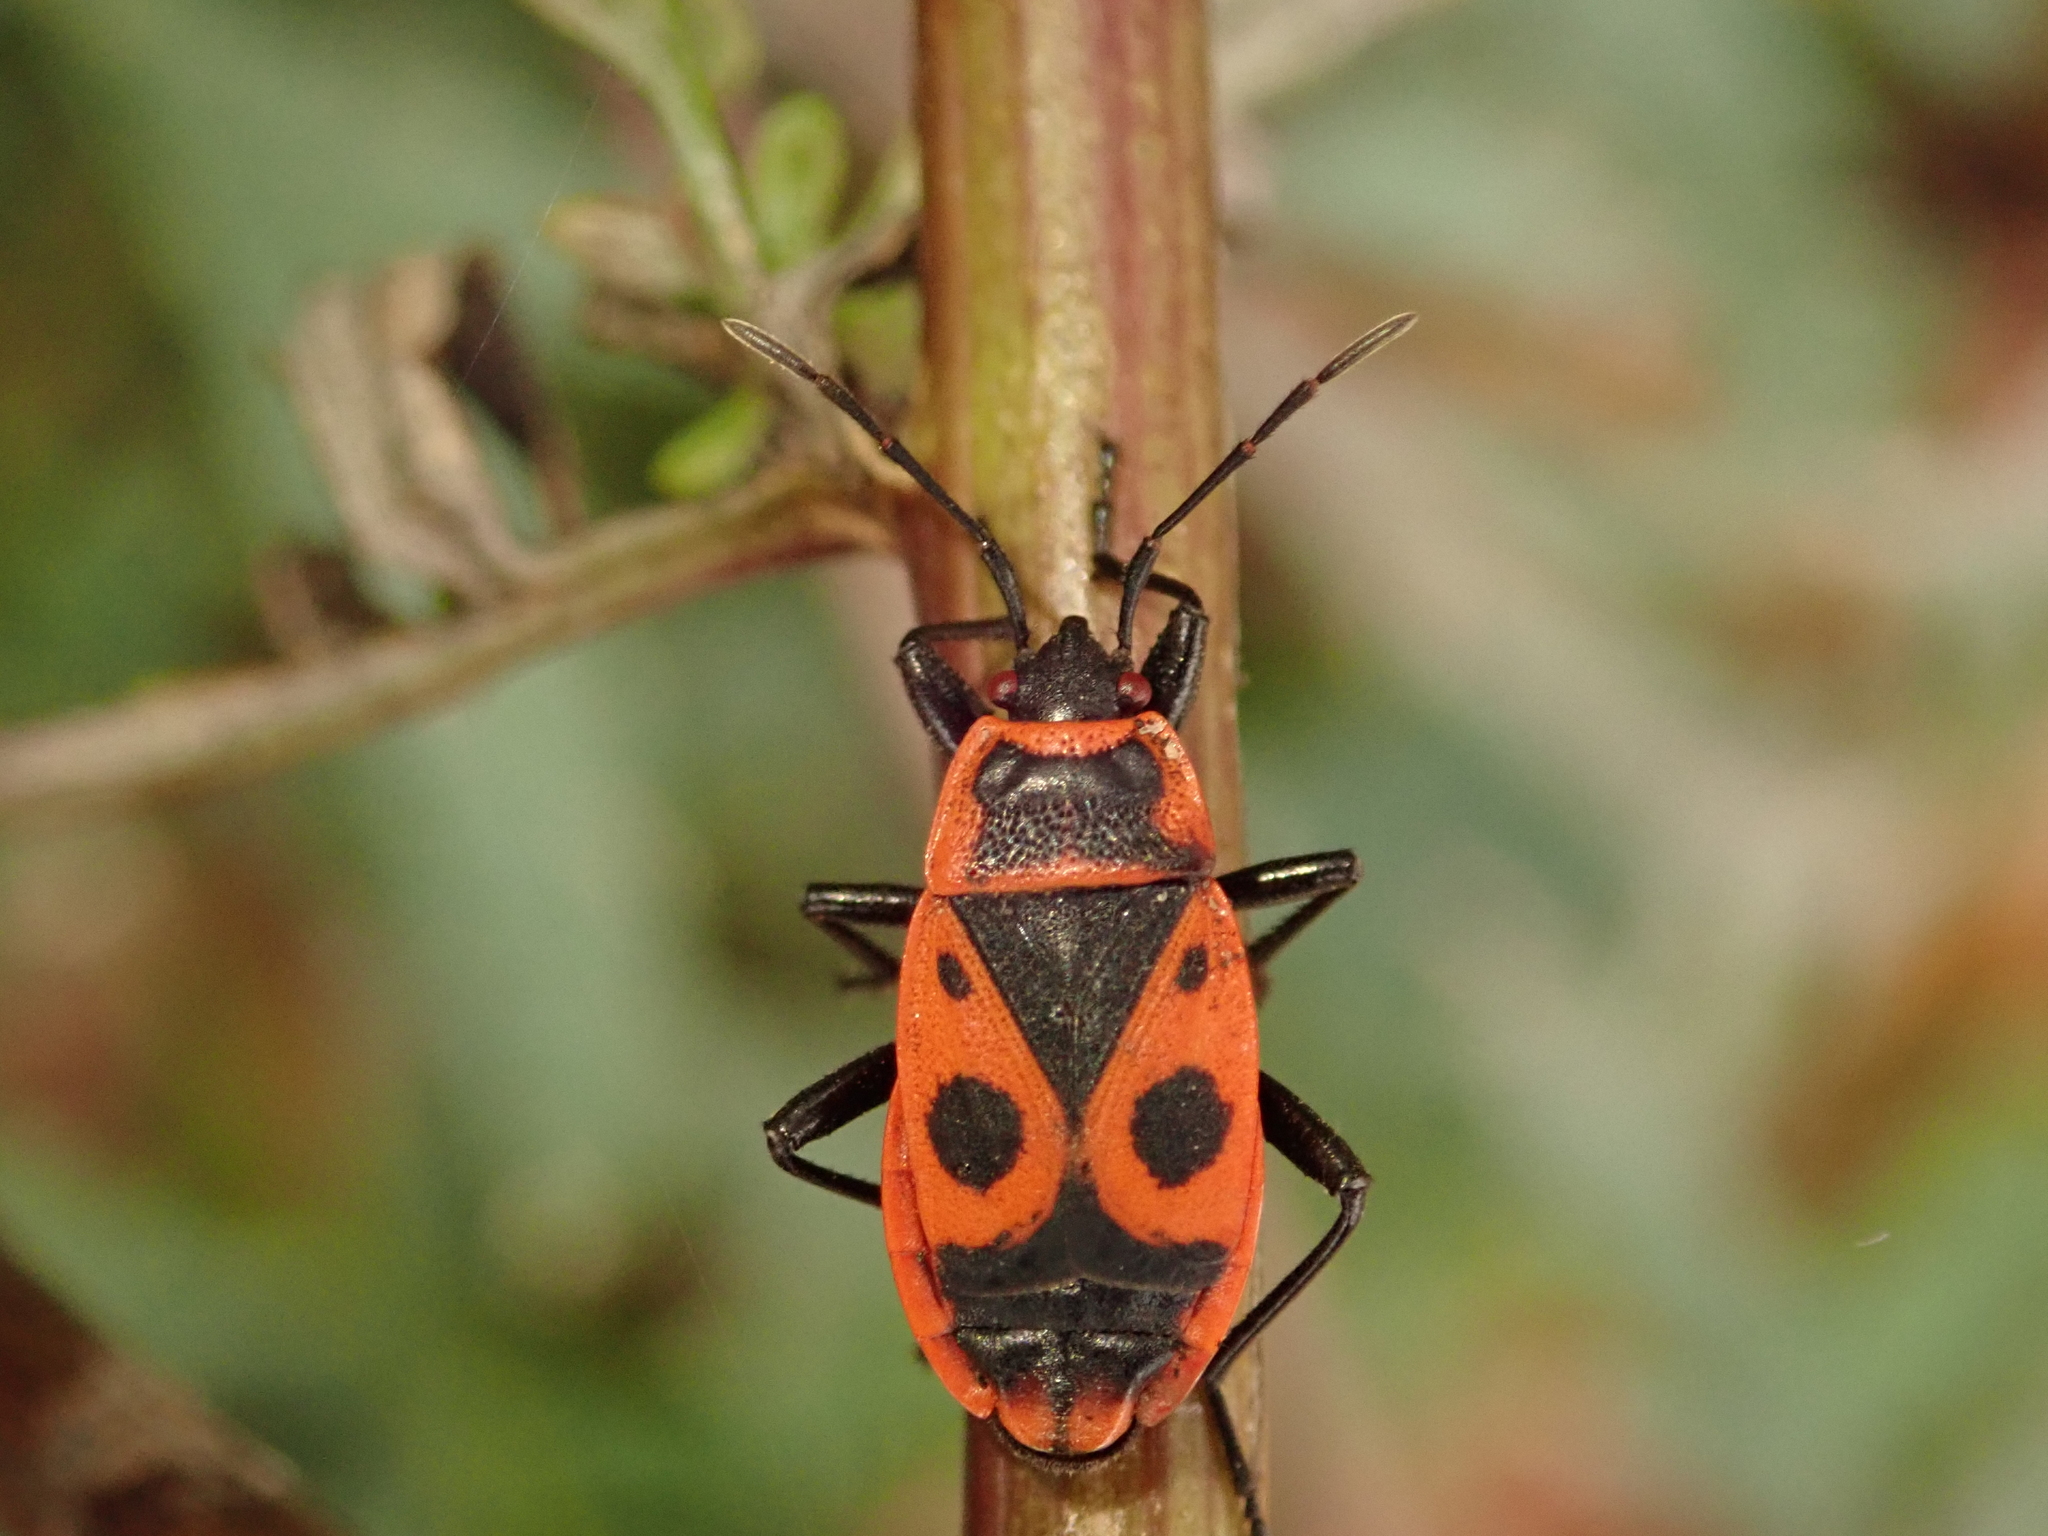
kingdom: Animalia
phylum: Arthropoda
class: Insecta
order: Hemiptera
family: Pyrrhocoridae
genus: Pyrrhocoris
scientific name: Pyrrhocoris apterus
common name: Firebug
